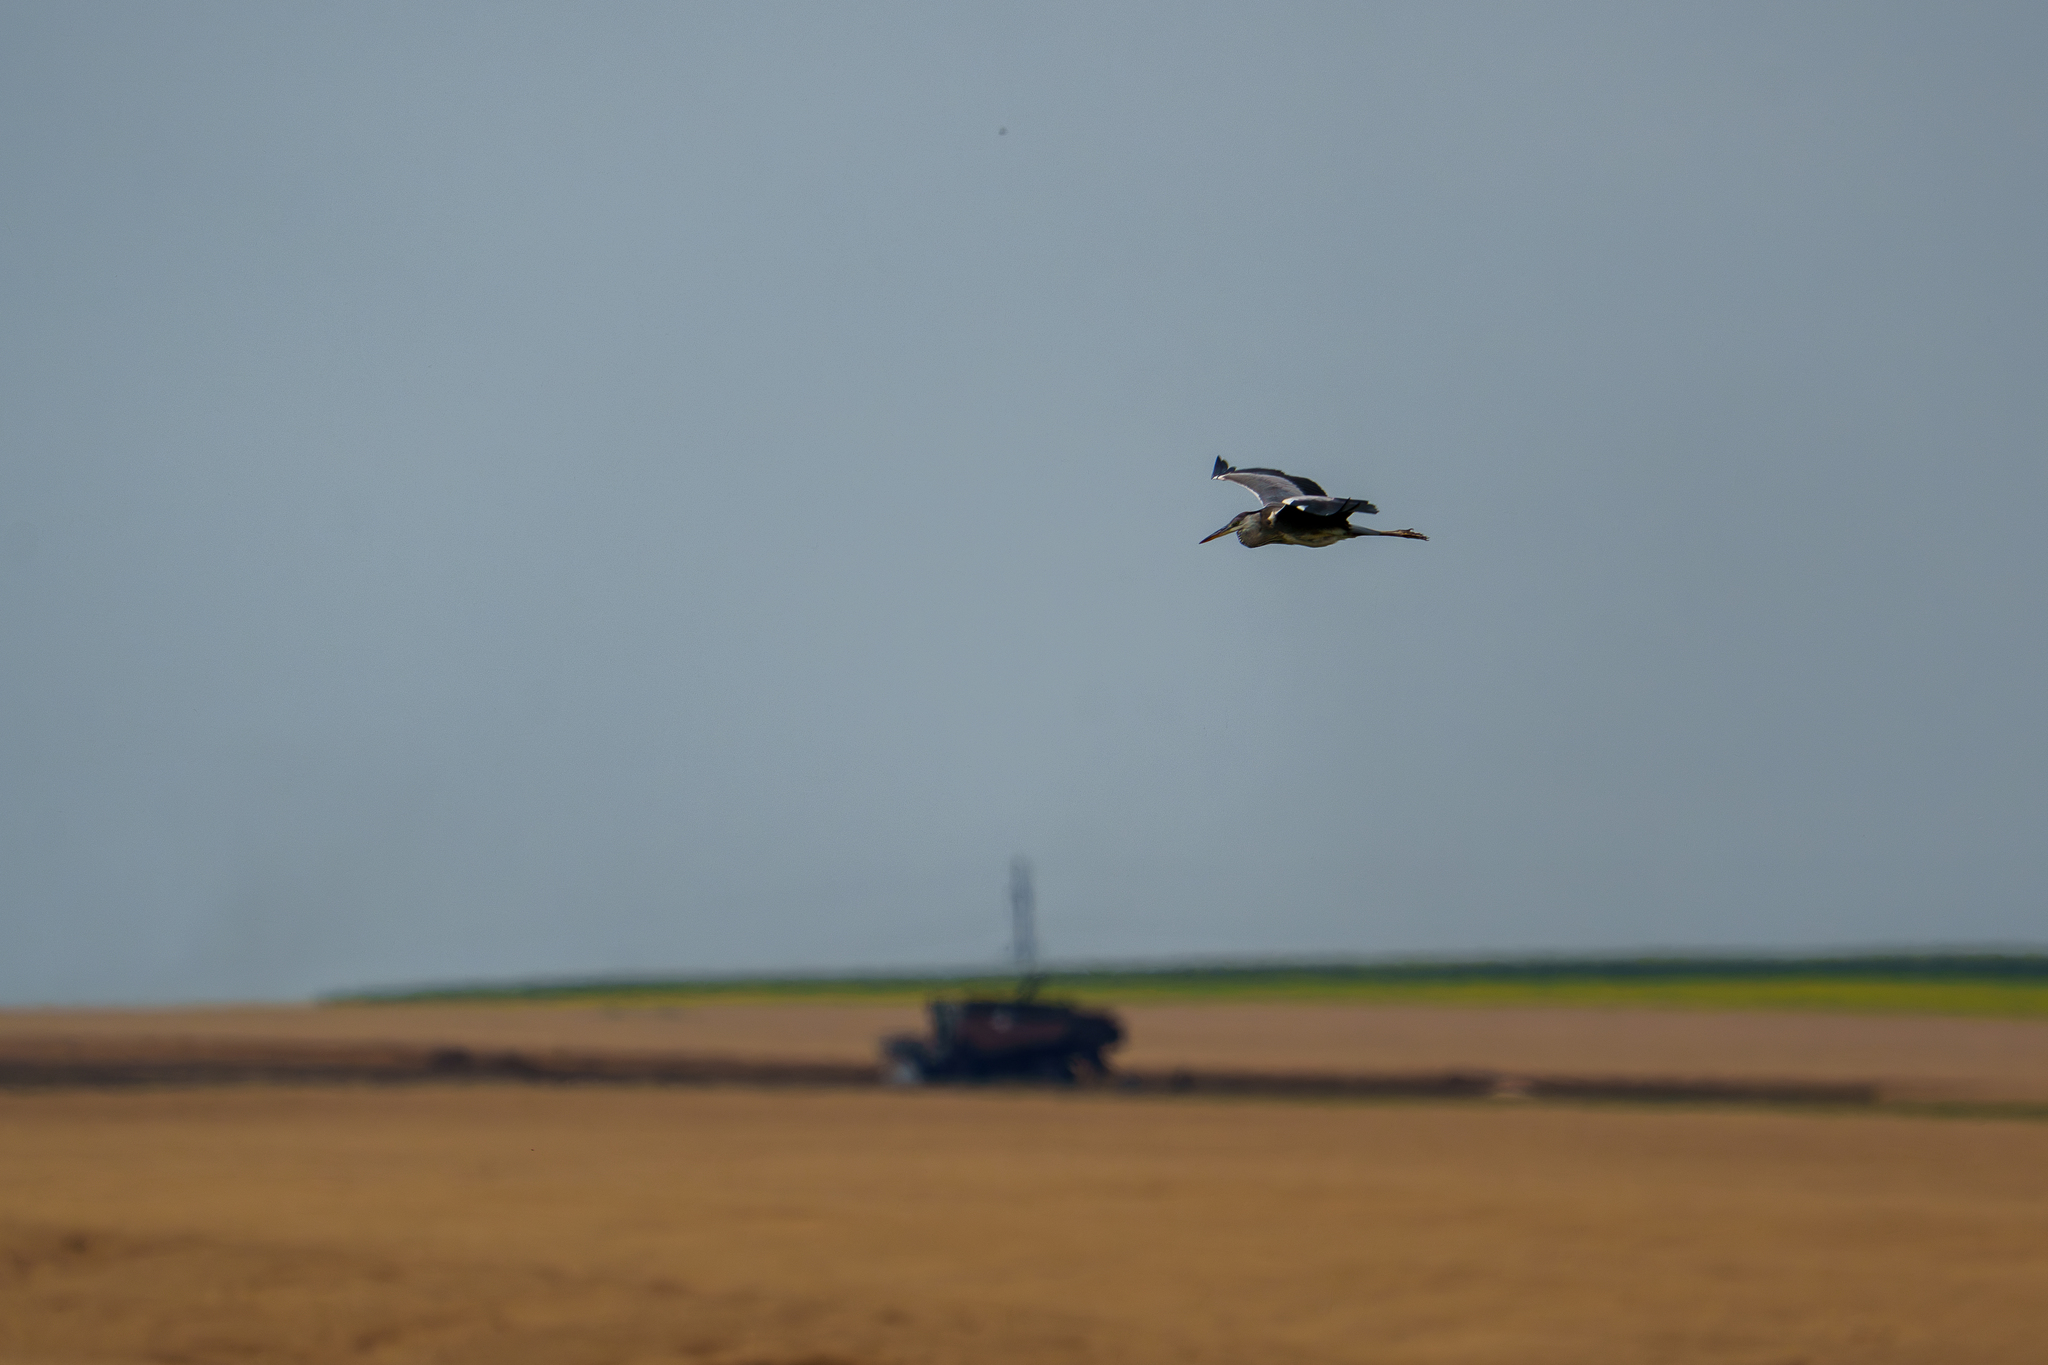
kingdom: Animalia
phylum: Chordata
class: Aves
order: Pelecaniformes
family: Ardeidae
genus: Ardea
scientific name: Ardea cinerea
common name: Grey heron
